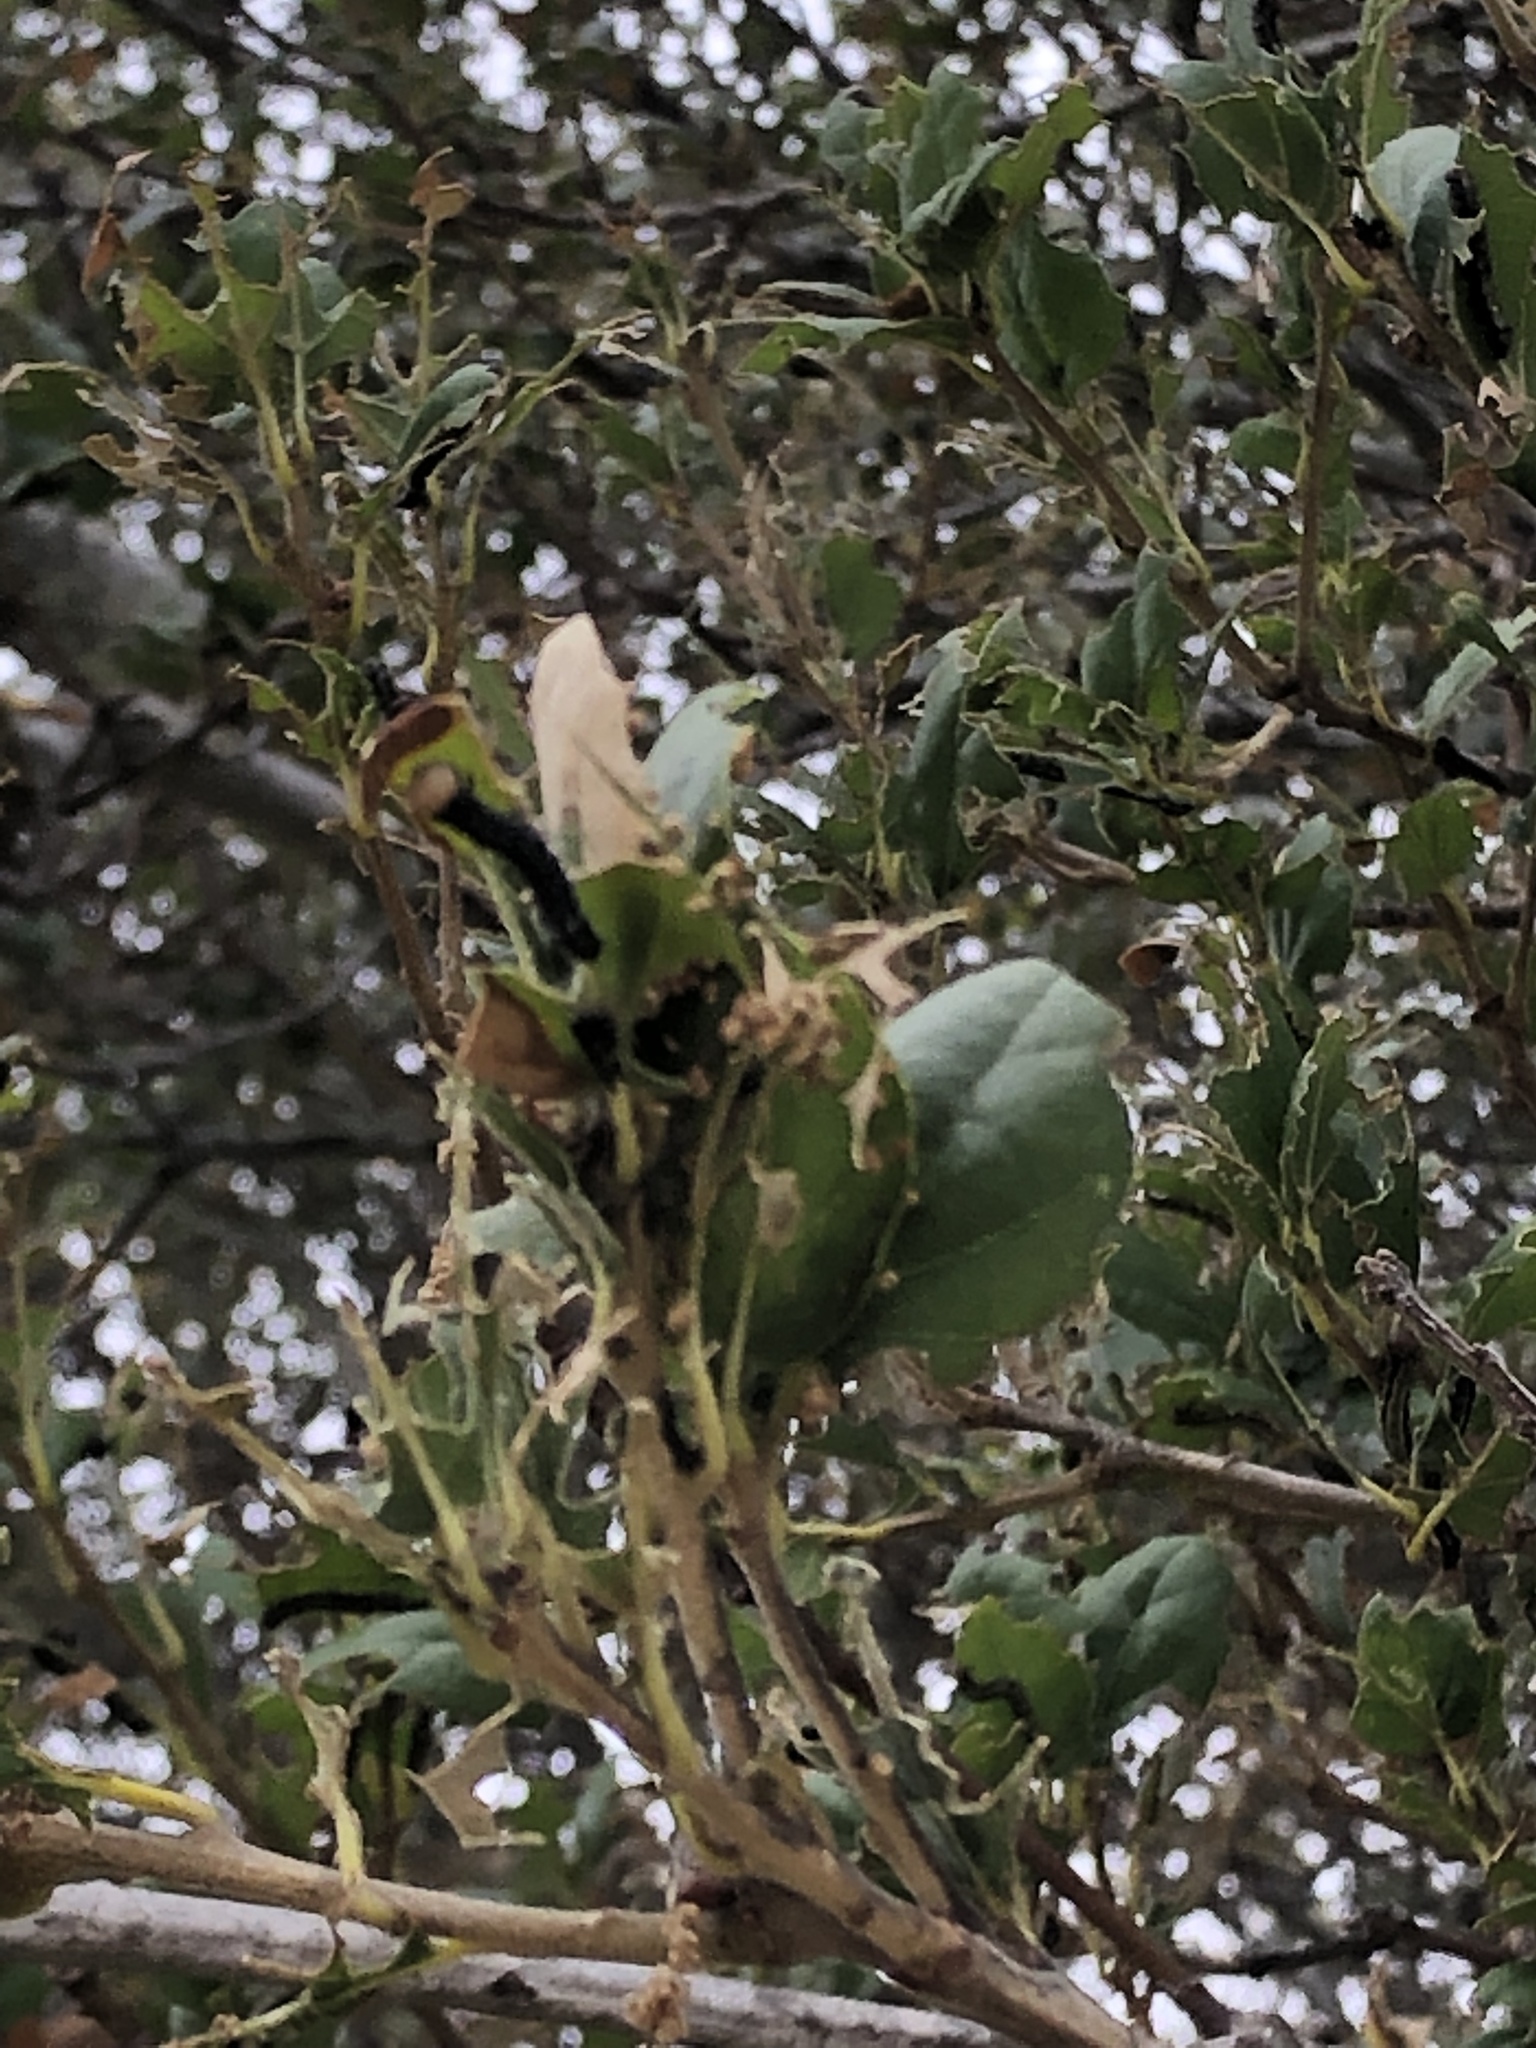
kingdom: Plantae
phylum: Tracheophyta
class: Magnoliopsida
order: Fagales
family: Fagaceae
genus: Quercus
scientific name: Quercus agrifolia
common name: California live oak
